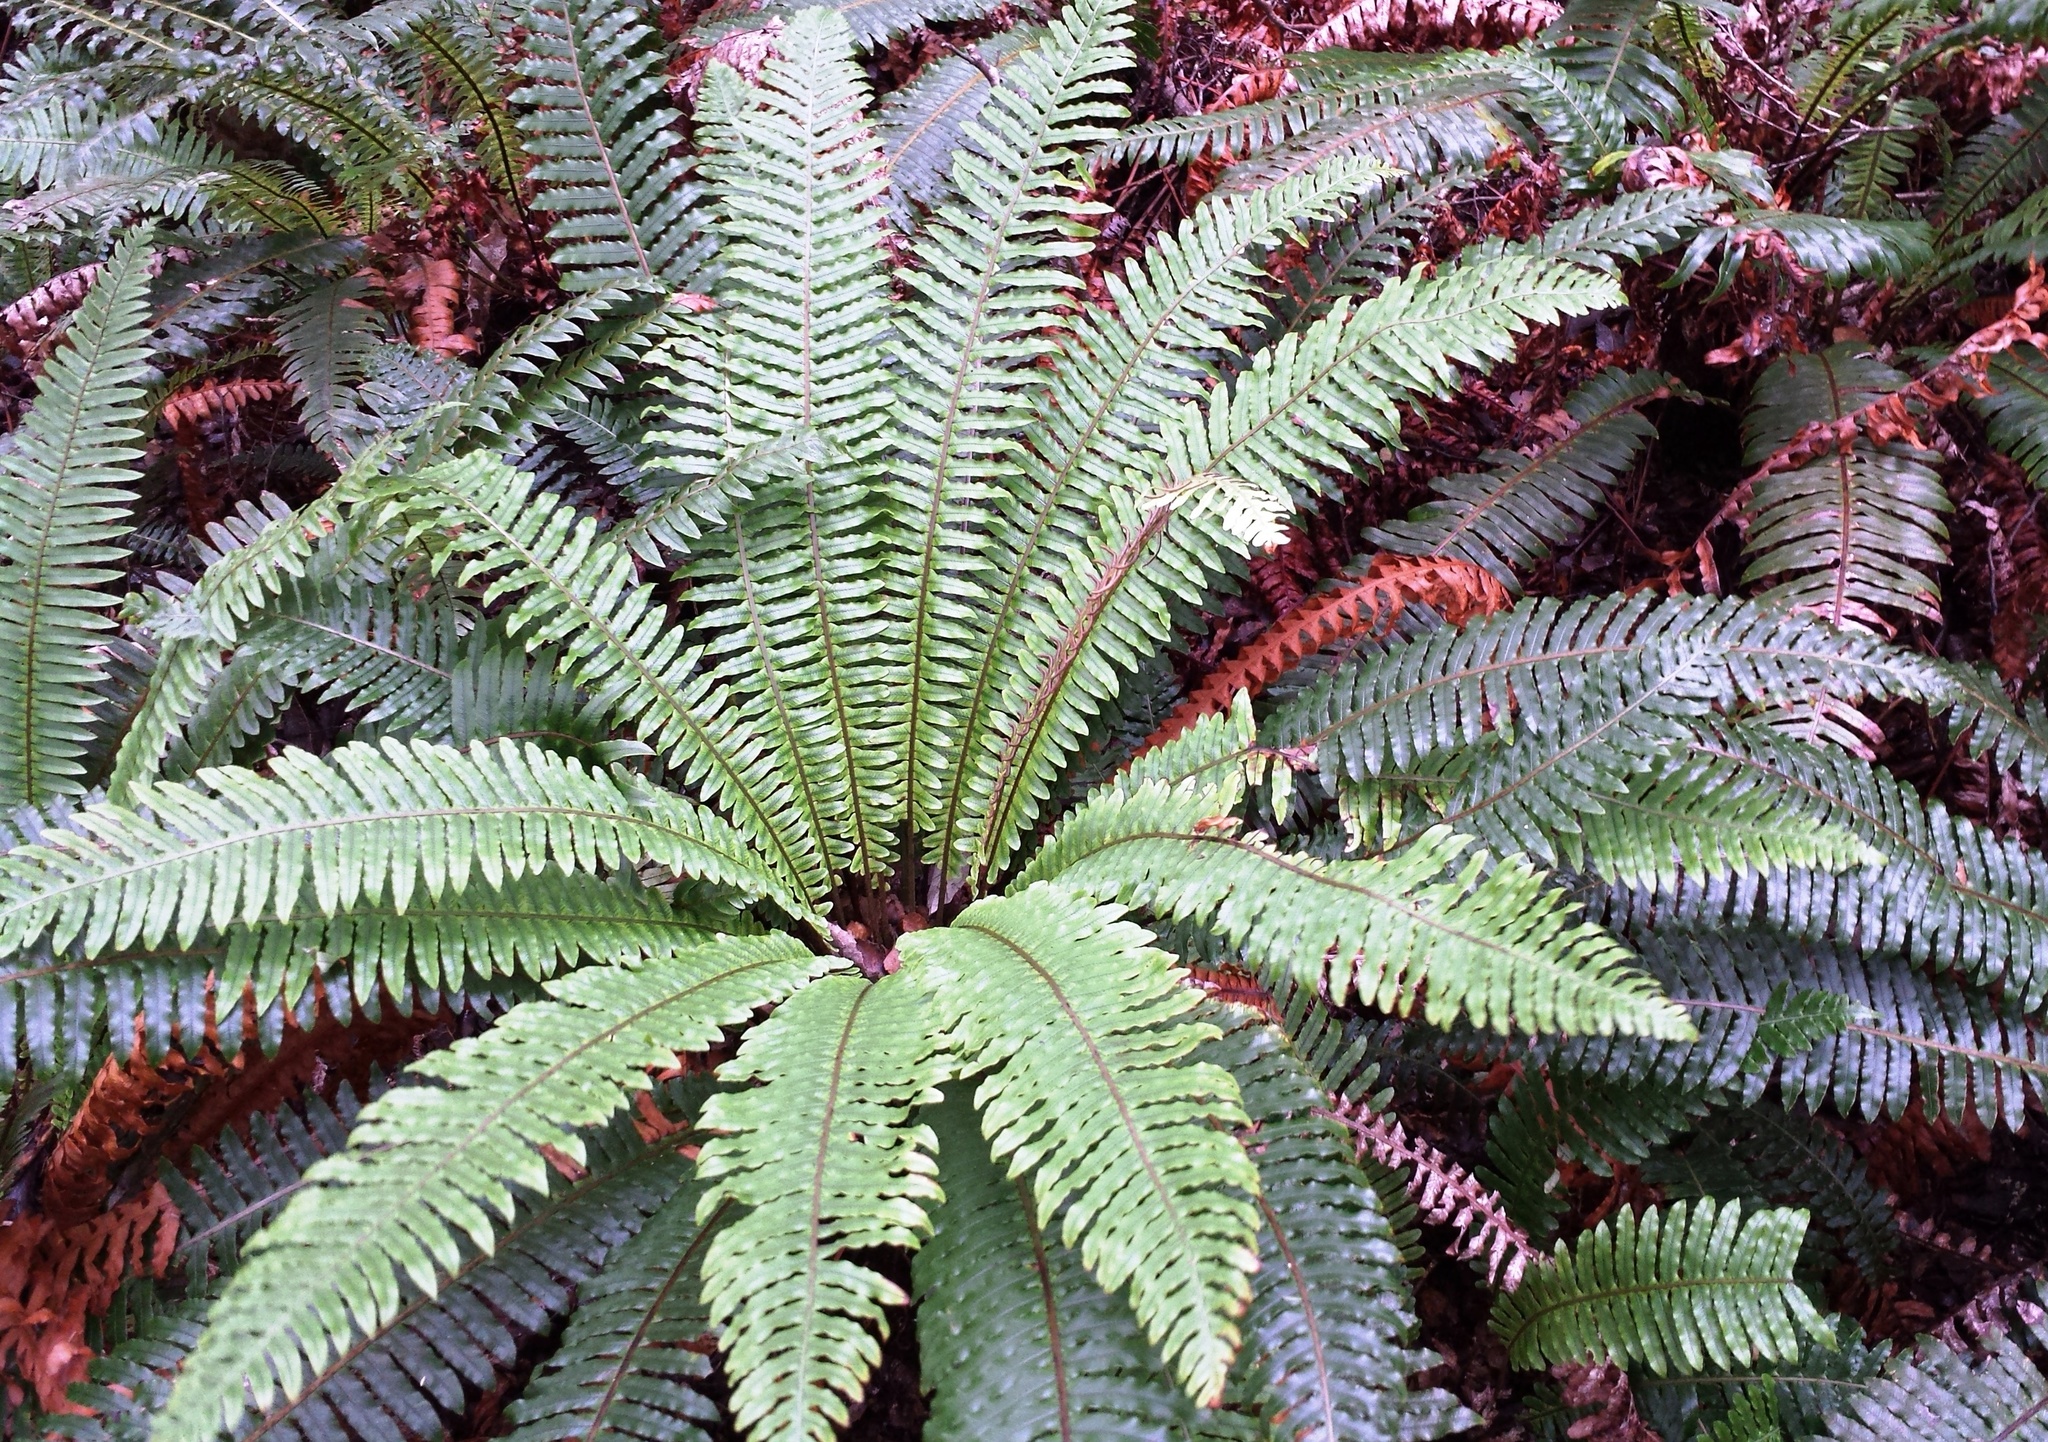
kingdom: Plantae
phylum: Tracheophyta
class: Polypodiopsida
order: Polypodiales
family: Blechnaceae
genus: Lomaria
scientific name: Lomaria discolor
